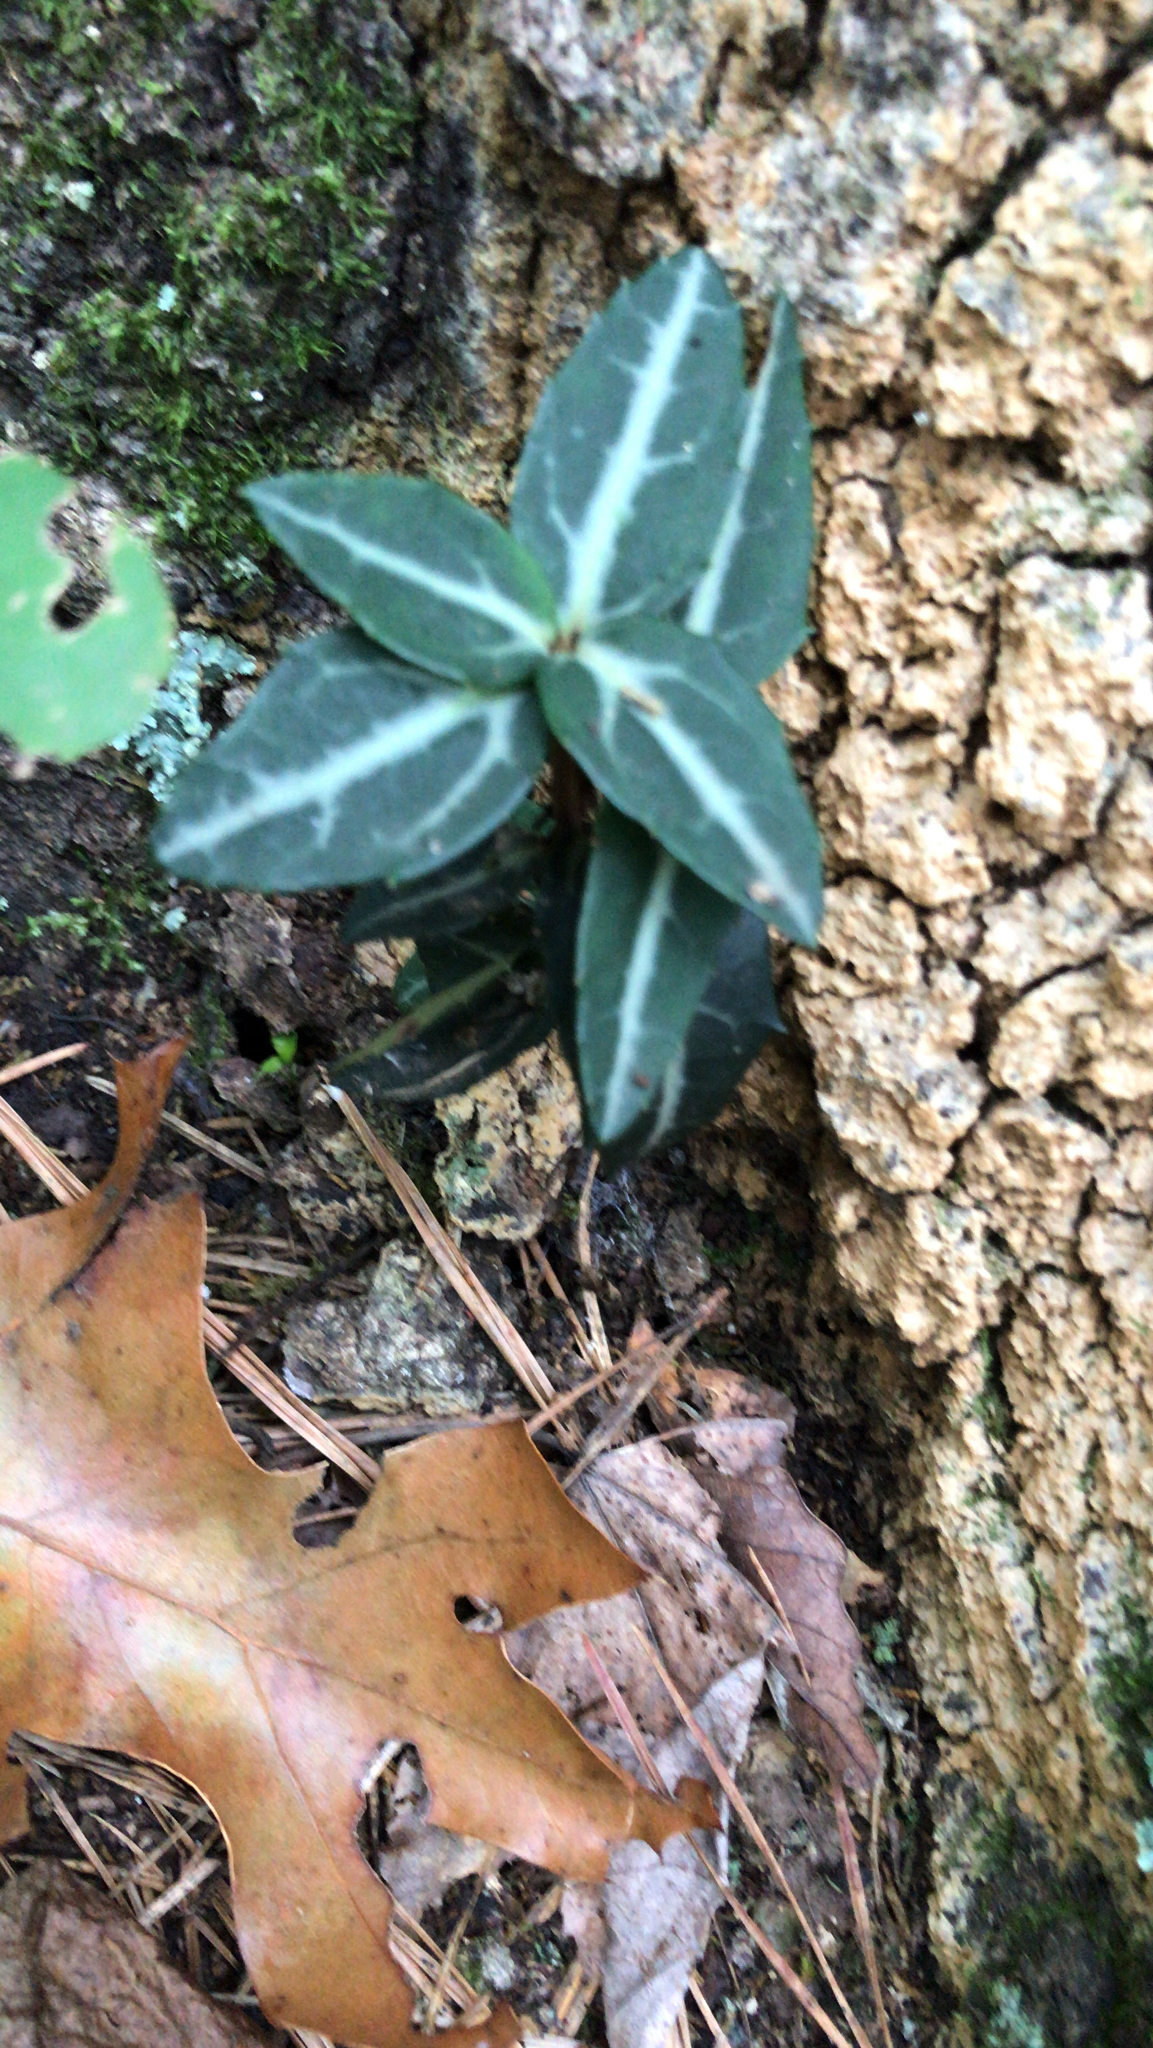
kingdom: Plantae
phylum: Tracheophyta
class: Magnoliopsida
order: Ericales
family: Ericaceae
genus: Chimaphila
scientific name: Chimaphila maculata
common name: Spotted pipsissewa
